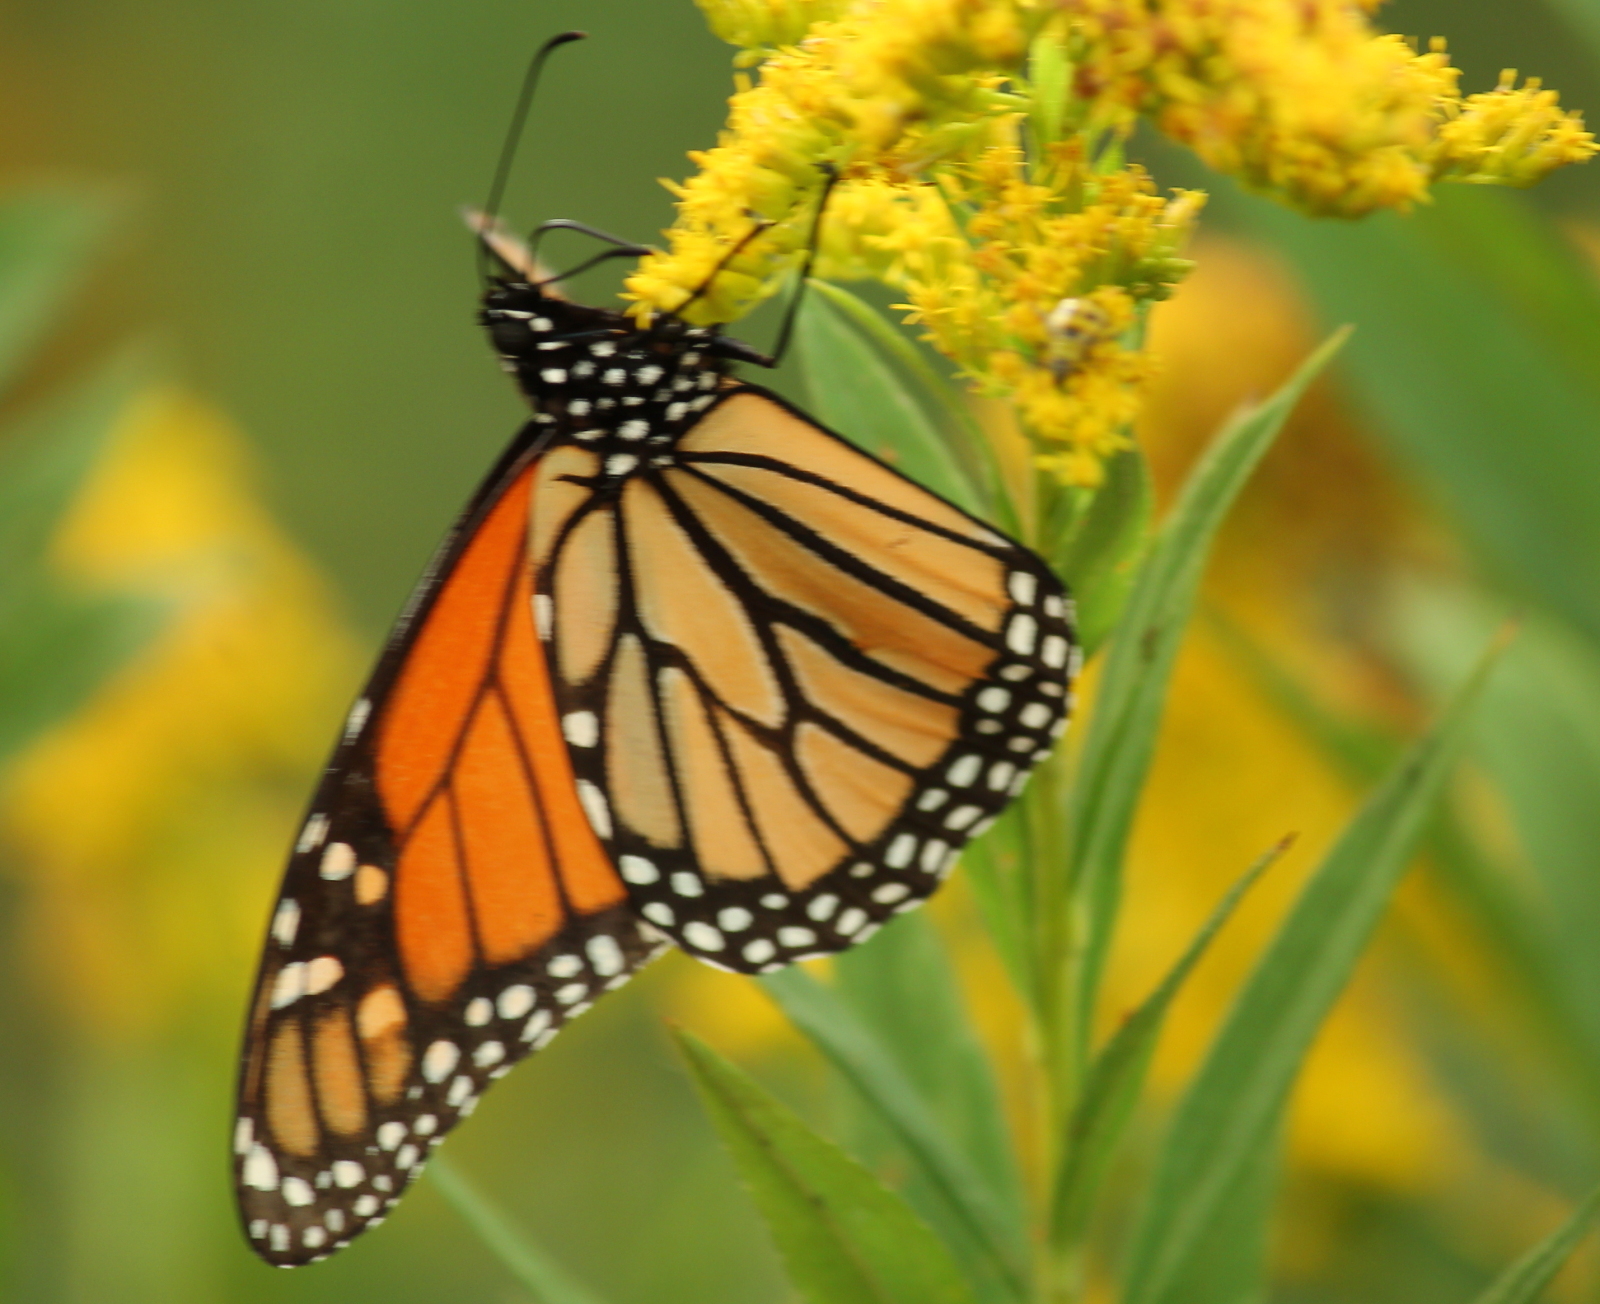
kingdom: Animalia
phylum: Arthropoda
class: Insecta
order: Lepidoptera
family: Nymphalidae
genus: Danaus
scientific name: Danaus plexippus
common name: Monarch
